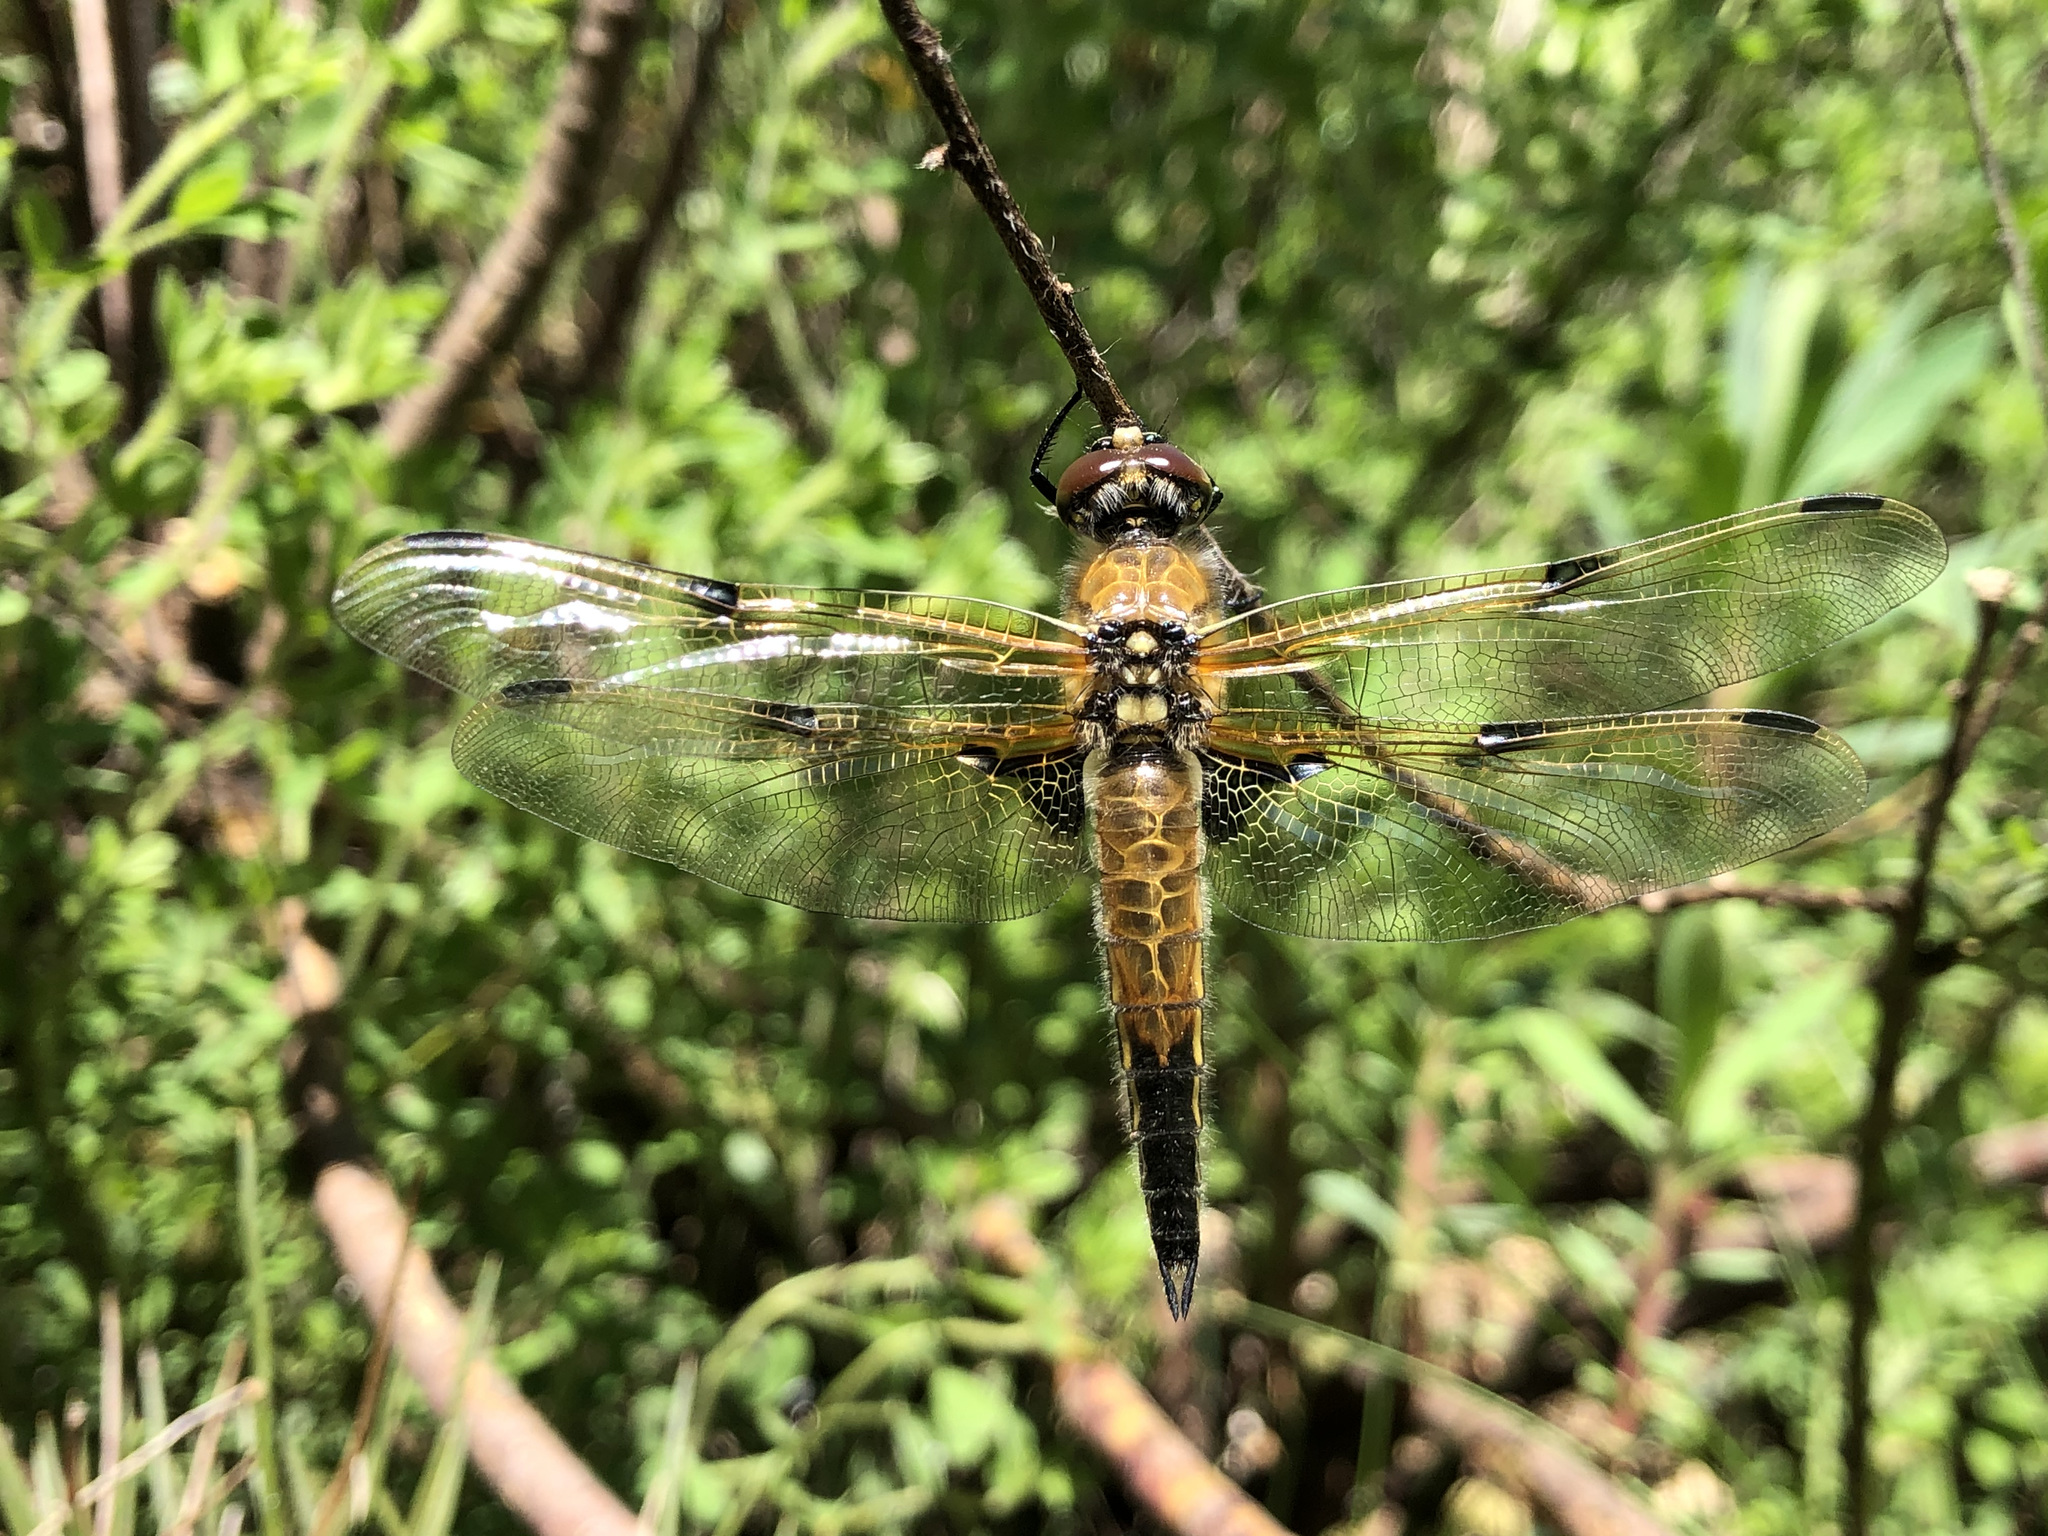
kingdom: Animalia
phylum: Arthropoda
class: Insecta
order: Odonata
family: Libellulidae
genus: Libellula
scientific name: Libellula quadrimaculata
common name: Four-spotted chaser
